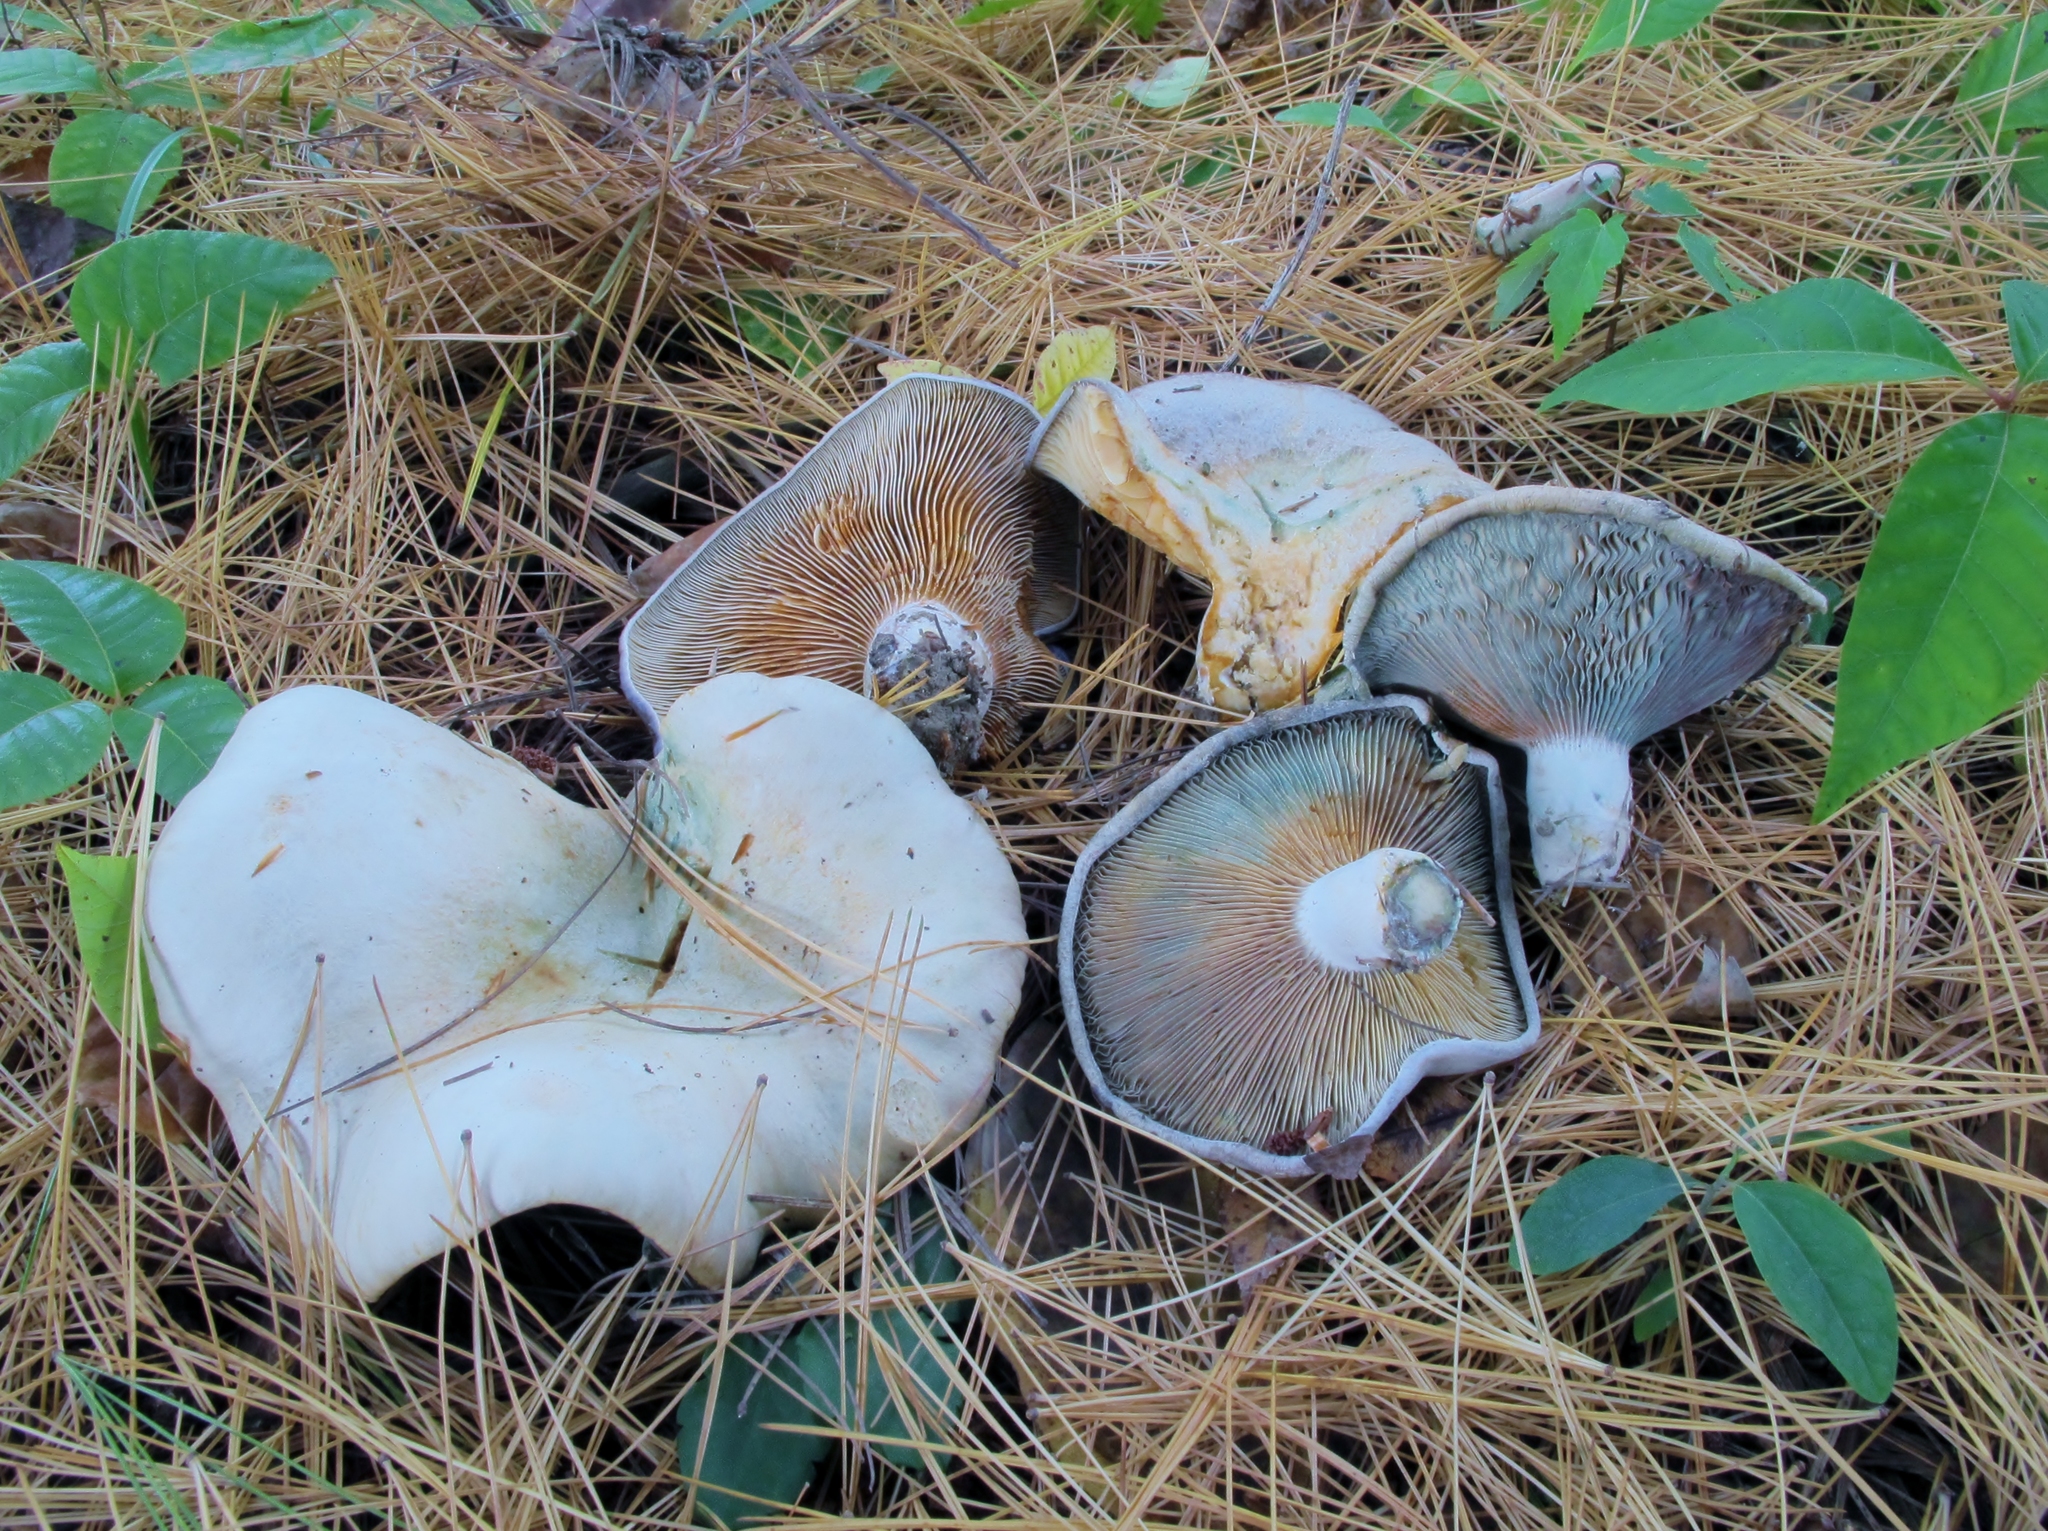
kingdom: Fungi
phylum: Basidiomycota
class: Agaricomycetes
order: Russulales
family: Russulaceae
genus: Lactarius
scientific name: Lactarius chelidonium
